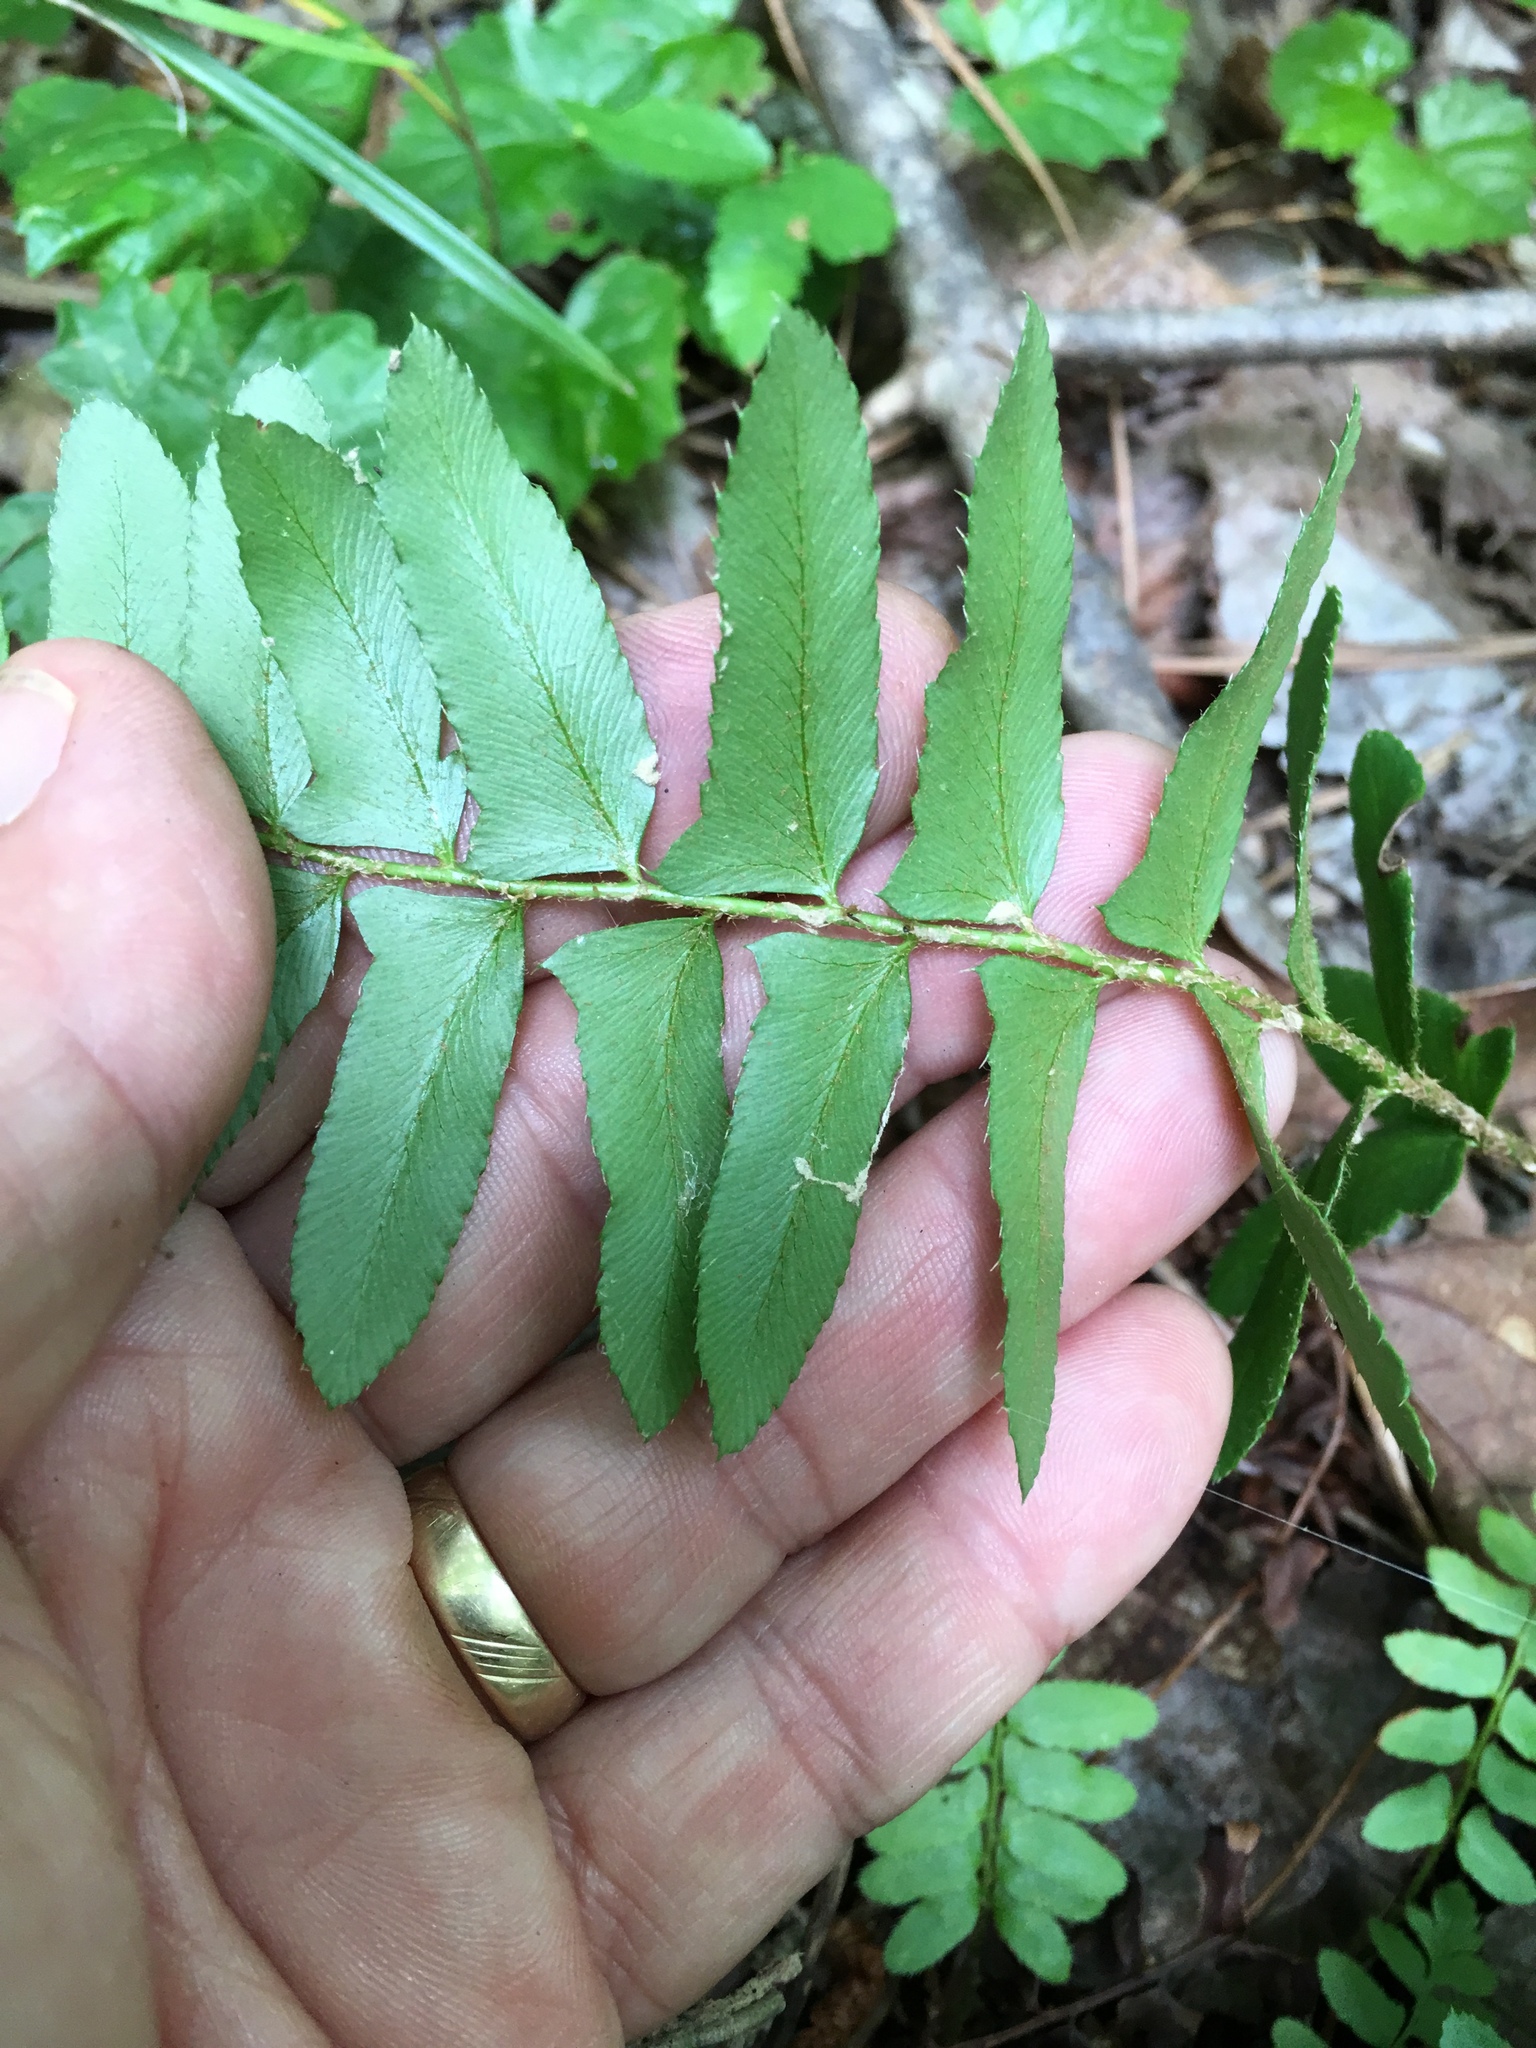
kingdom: Plantae
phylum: Tracheophyta
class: Polypodiopsida
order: Polypodiales
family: Dryopteridaceae
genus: Polystichum
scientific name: Polystichum acrostichoides
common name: Christmas fern
